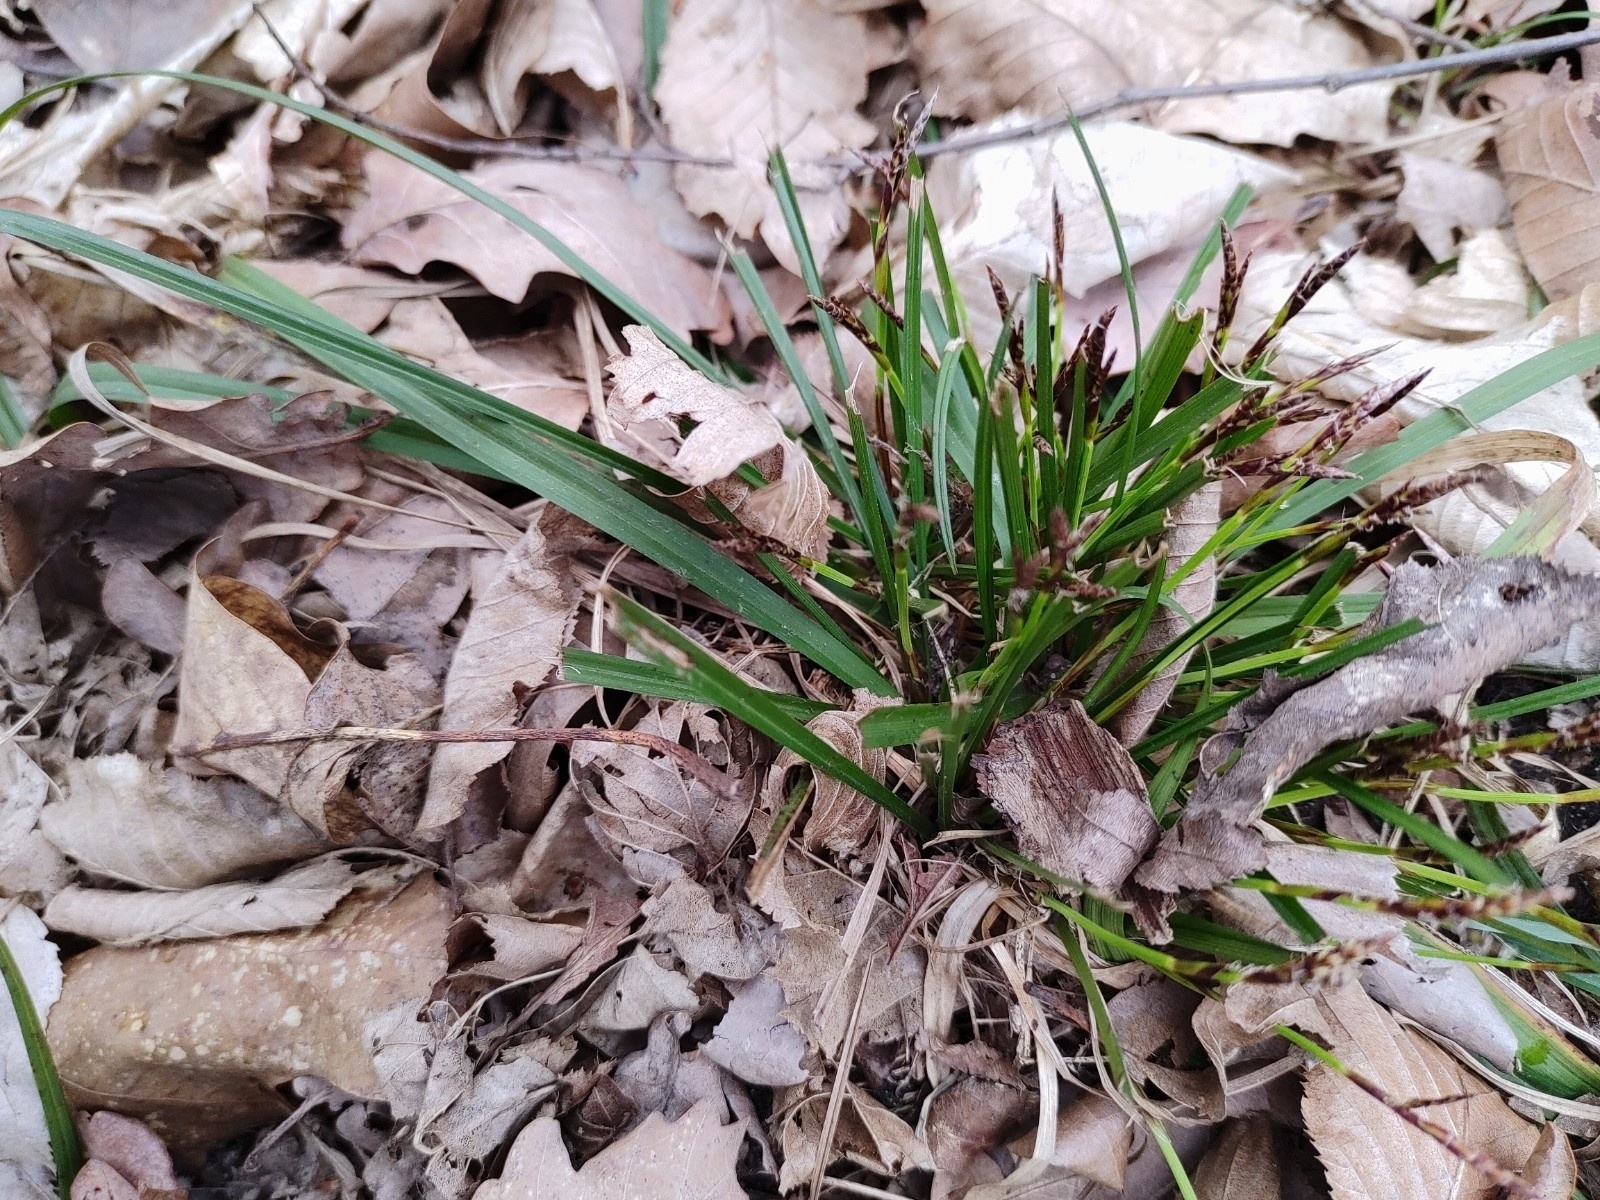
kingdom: Plantae
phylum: Tracheophyta
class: Liliopsida
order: Poales
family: Cyperaceae
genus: Carex
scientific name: Carex digitata
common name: Fingered sedge
